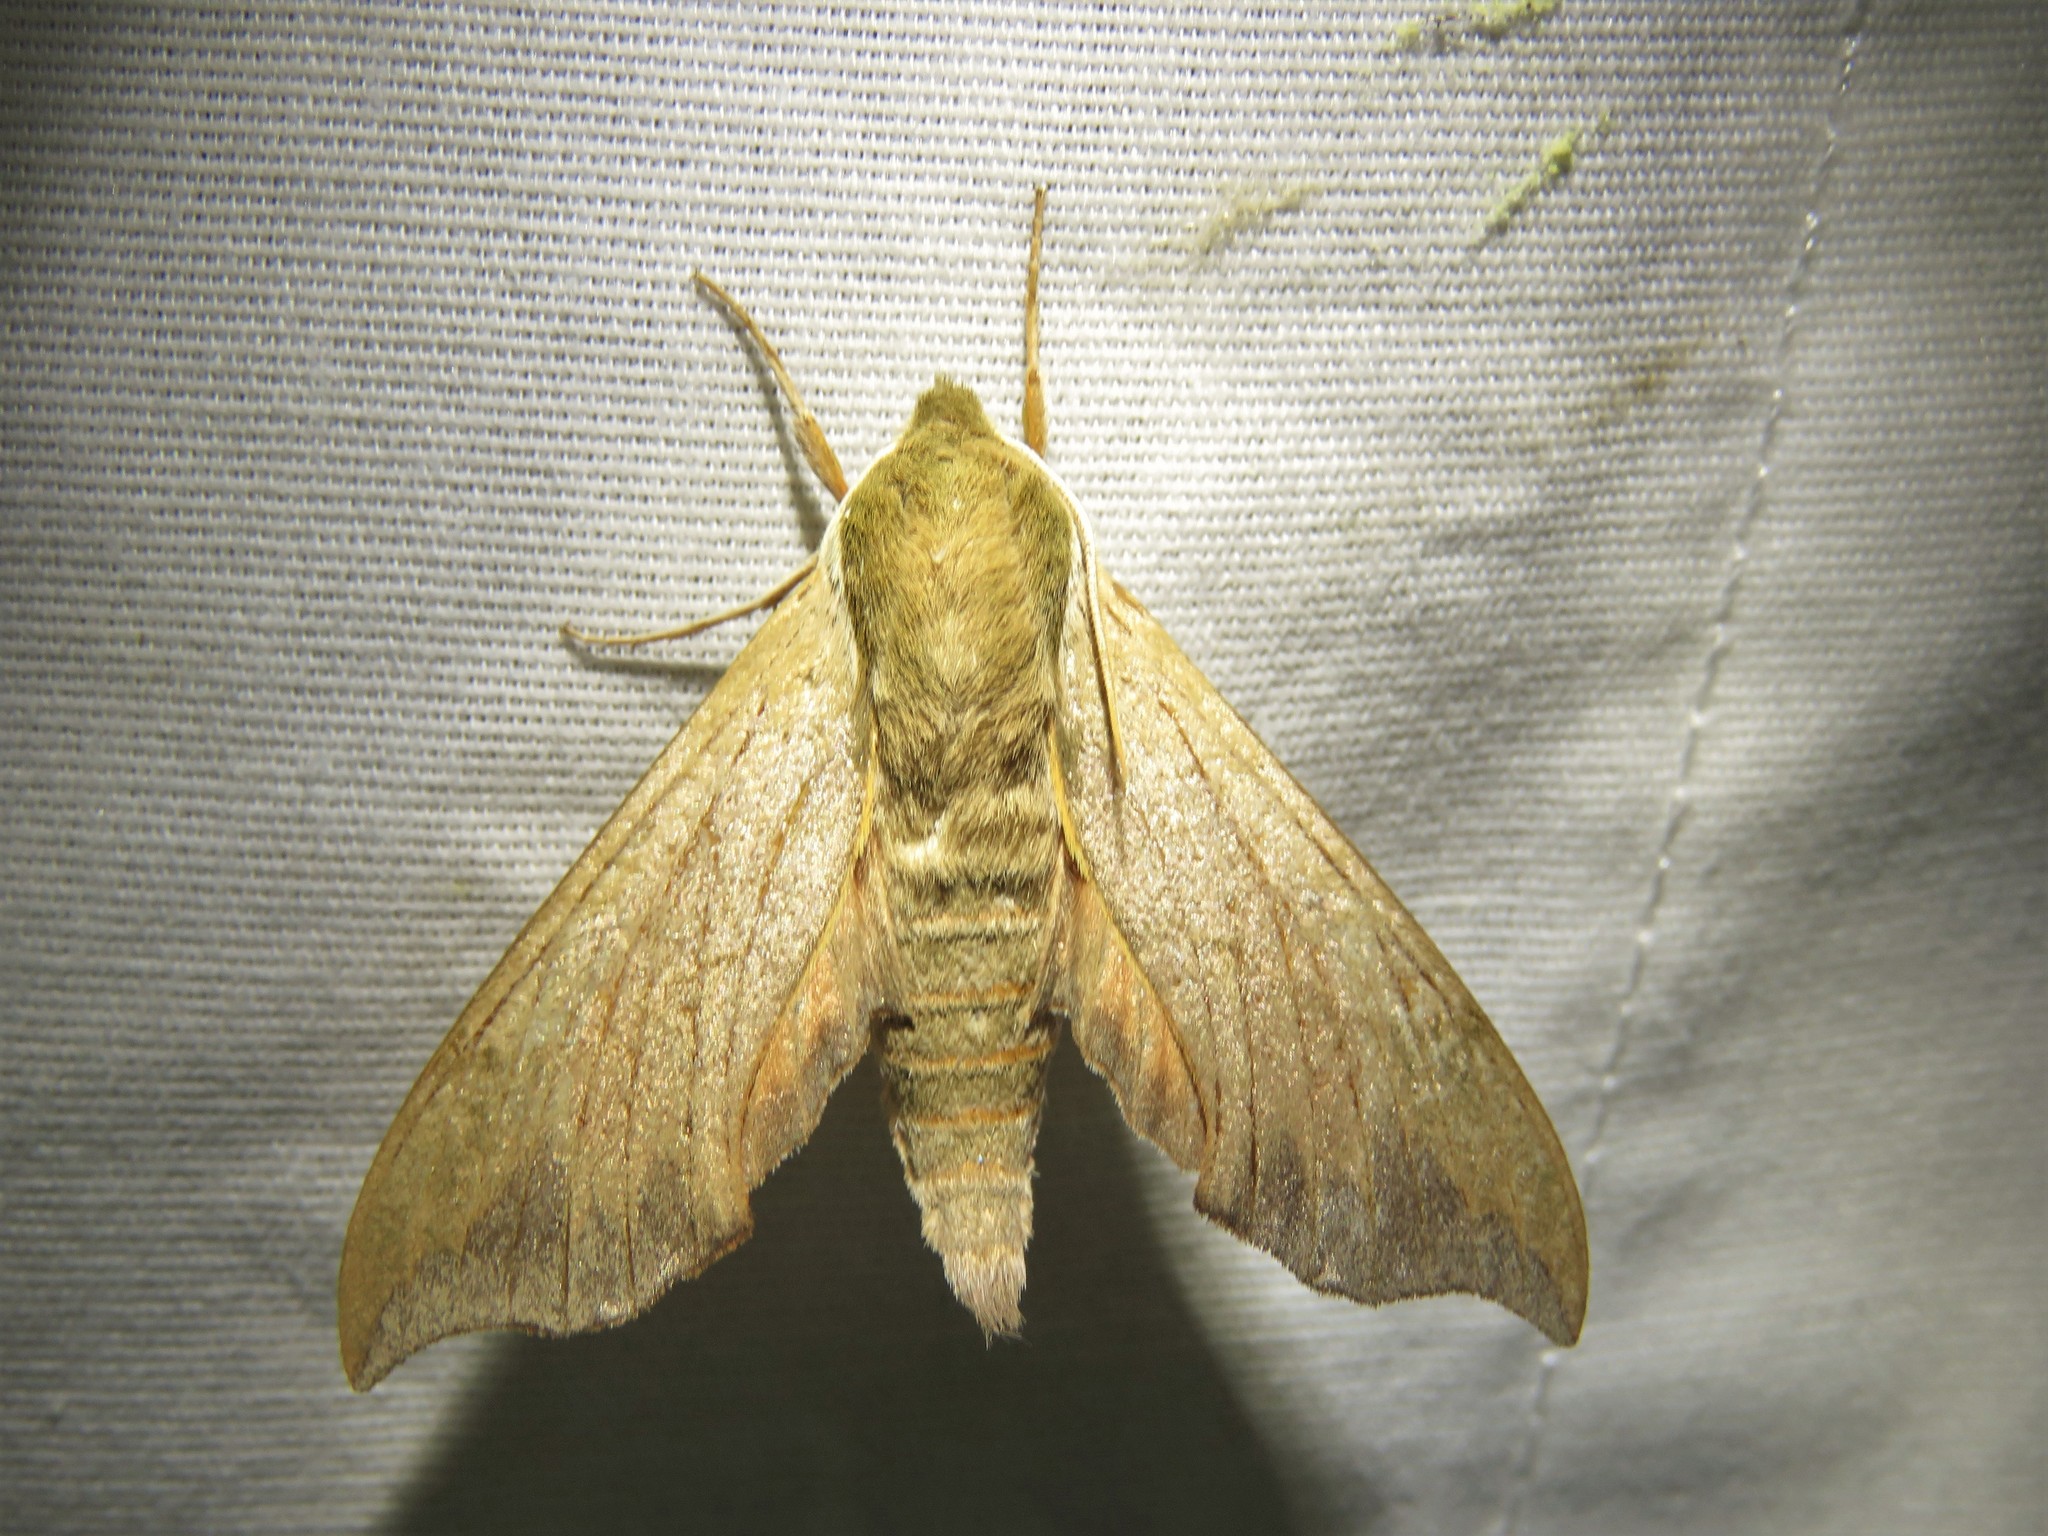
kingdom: Animalia
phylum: Arthropoda
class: Insecta
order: Lepidoptera
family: Sphingidae
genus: Darapsa
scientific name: Darapsa myron
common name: Hog sphinx
